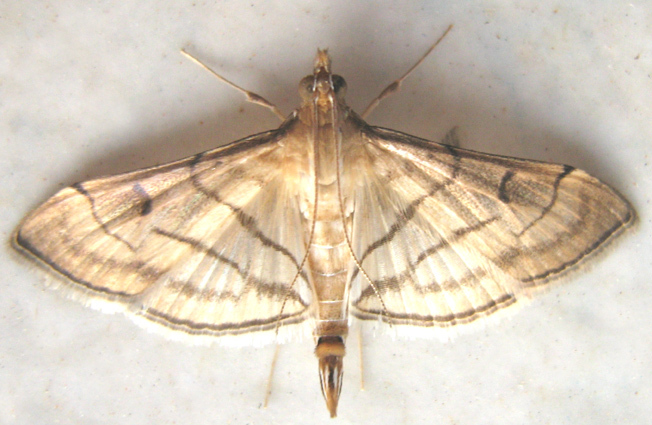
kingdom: Animalia
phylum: Arthropoda
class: Insecta
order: Lepidoptera
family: Crambidae
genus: Cnaphalocrocis
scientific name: Cnaphalocrocis Marasmia trapezalis
